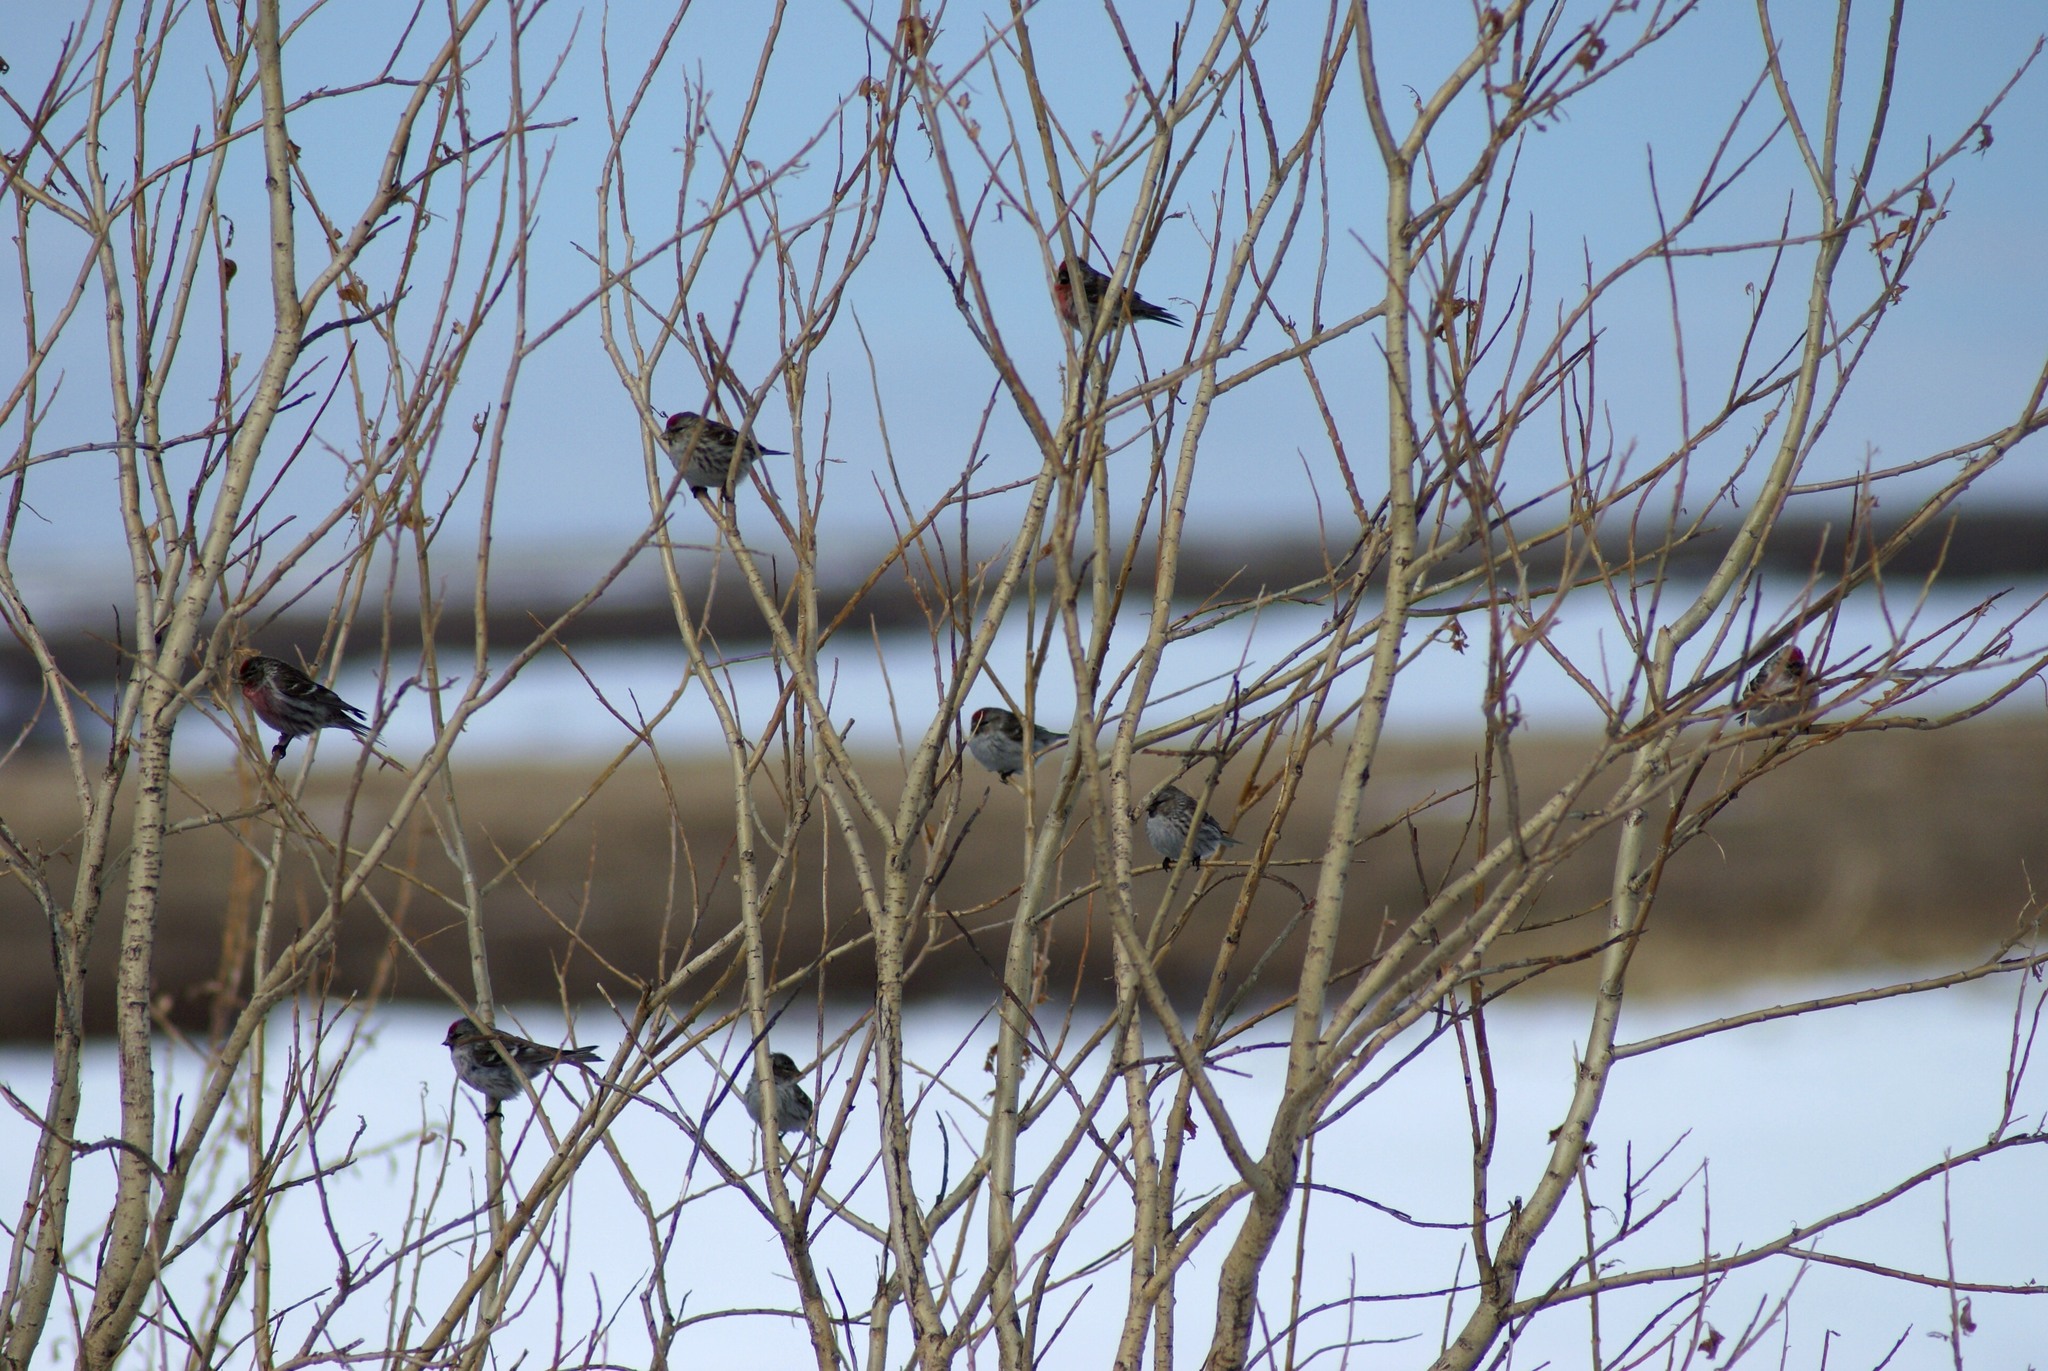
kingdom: Animalia
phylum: Chordata
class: Aves
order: Passeriformes
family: Fringillidae
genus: Acanthis
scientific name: Acanthis flammea
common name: Common redpoll
